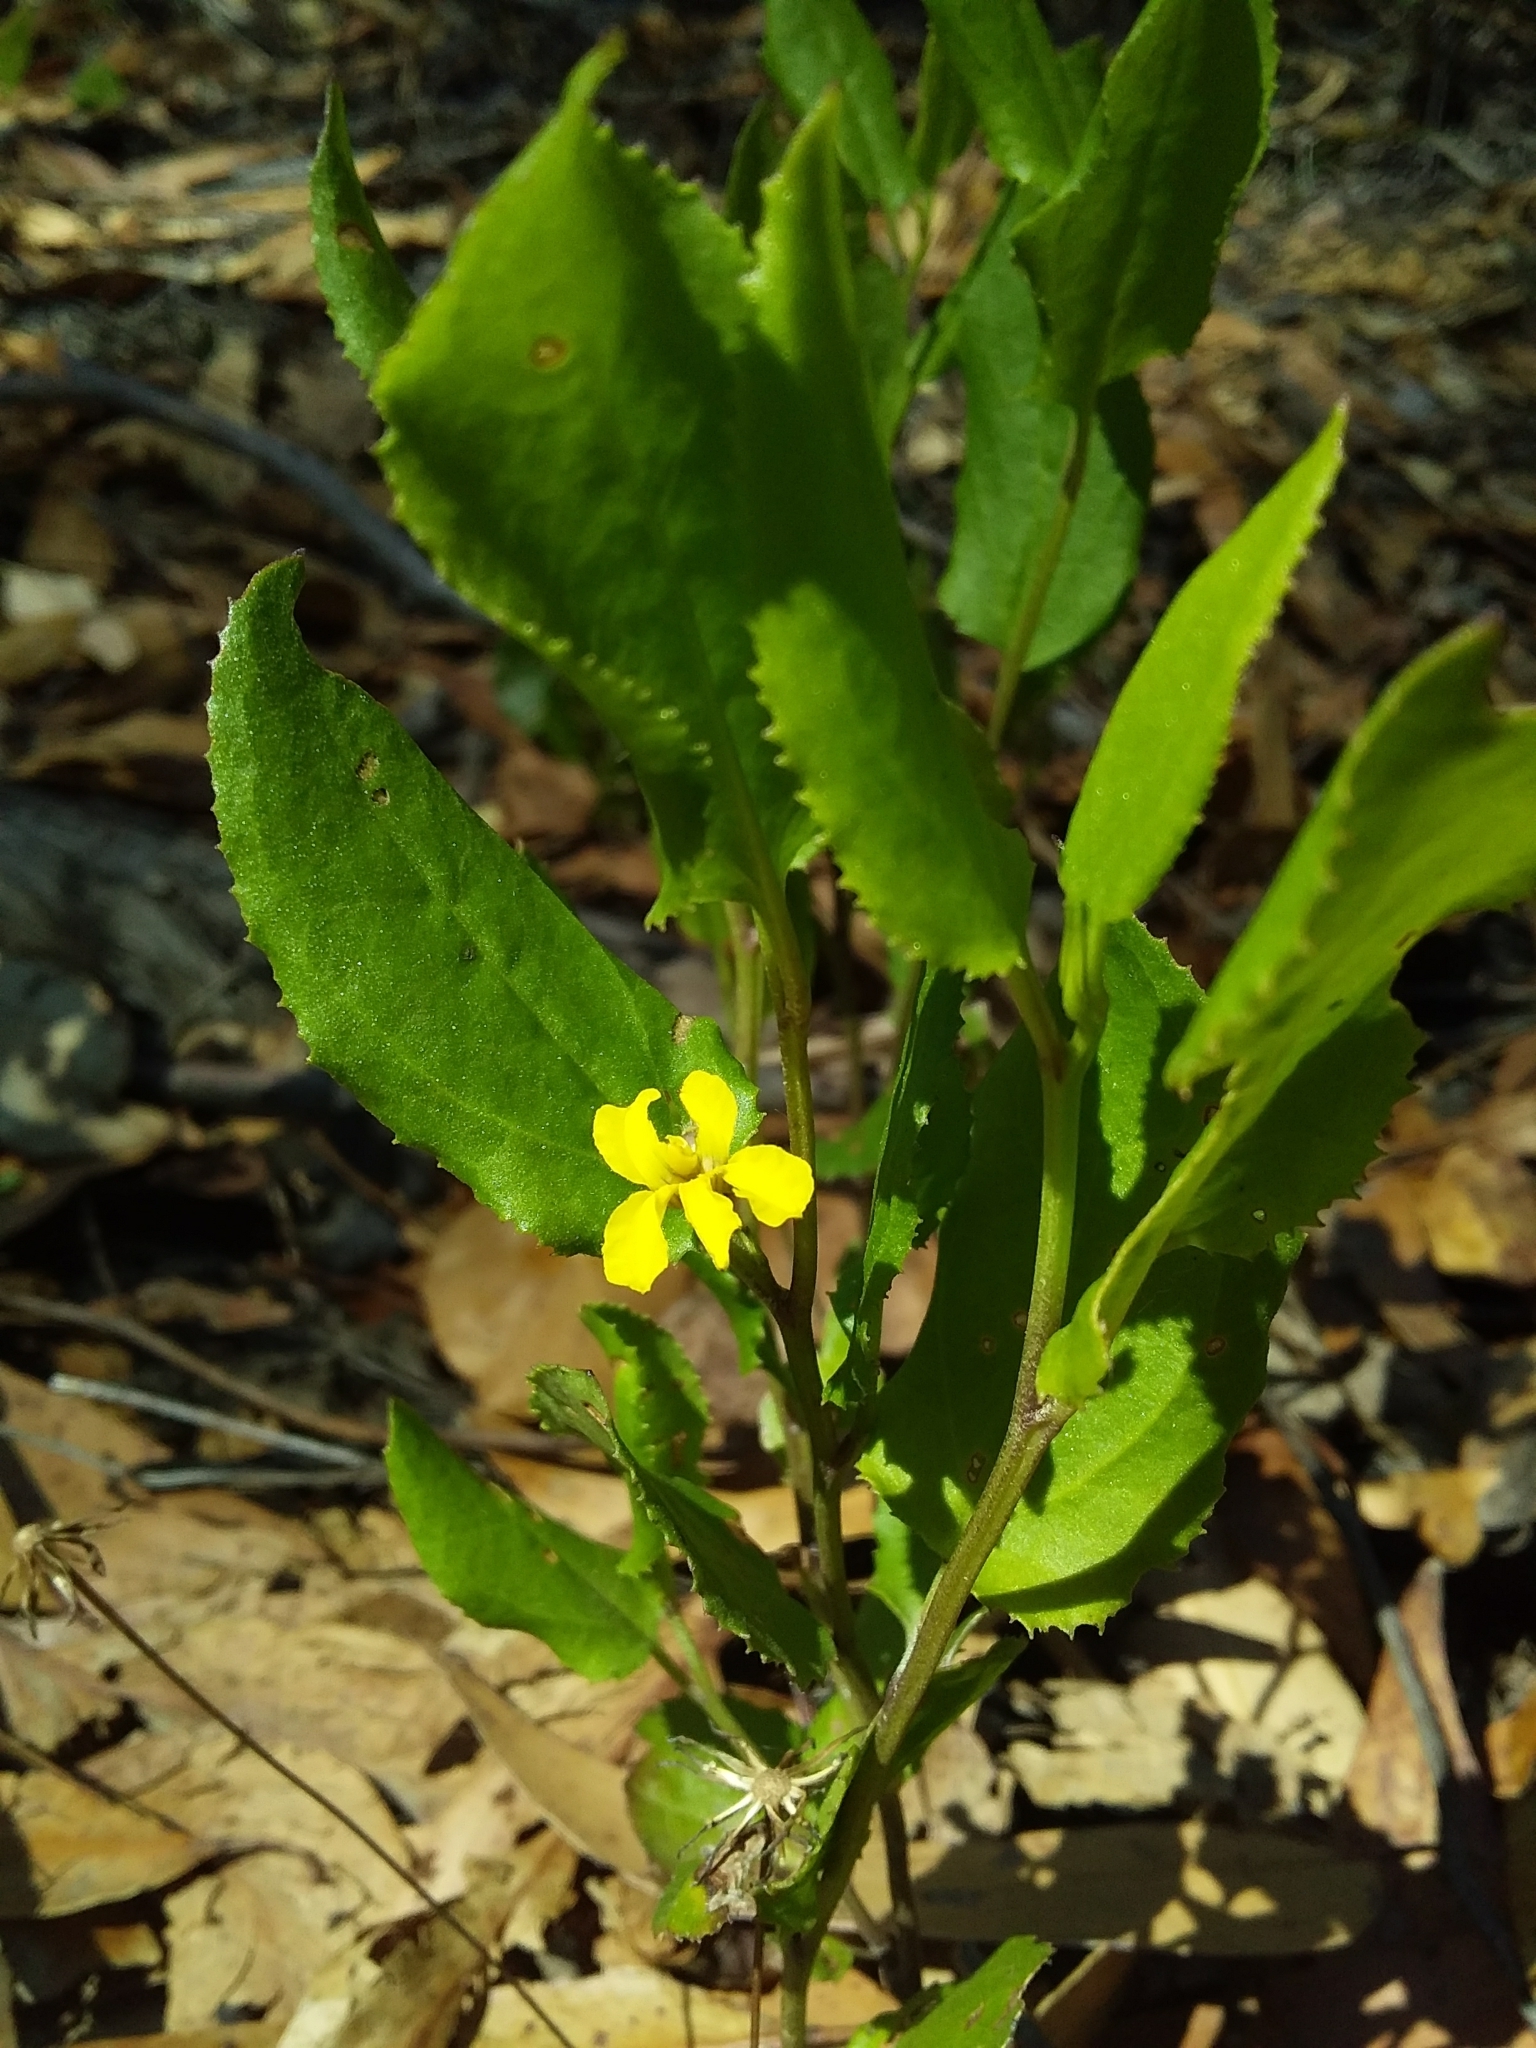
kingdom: Plantae
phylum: Tracheophyta
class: Magnoliopsida
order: Asterales
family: Goodeniaceae
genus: Goodenia
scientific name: Goodenia ovata
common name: Hop goodenia
